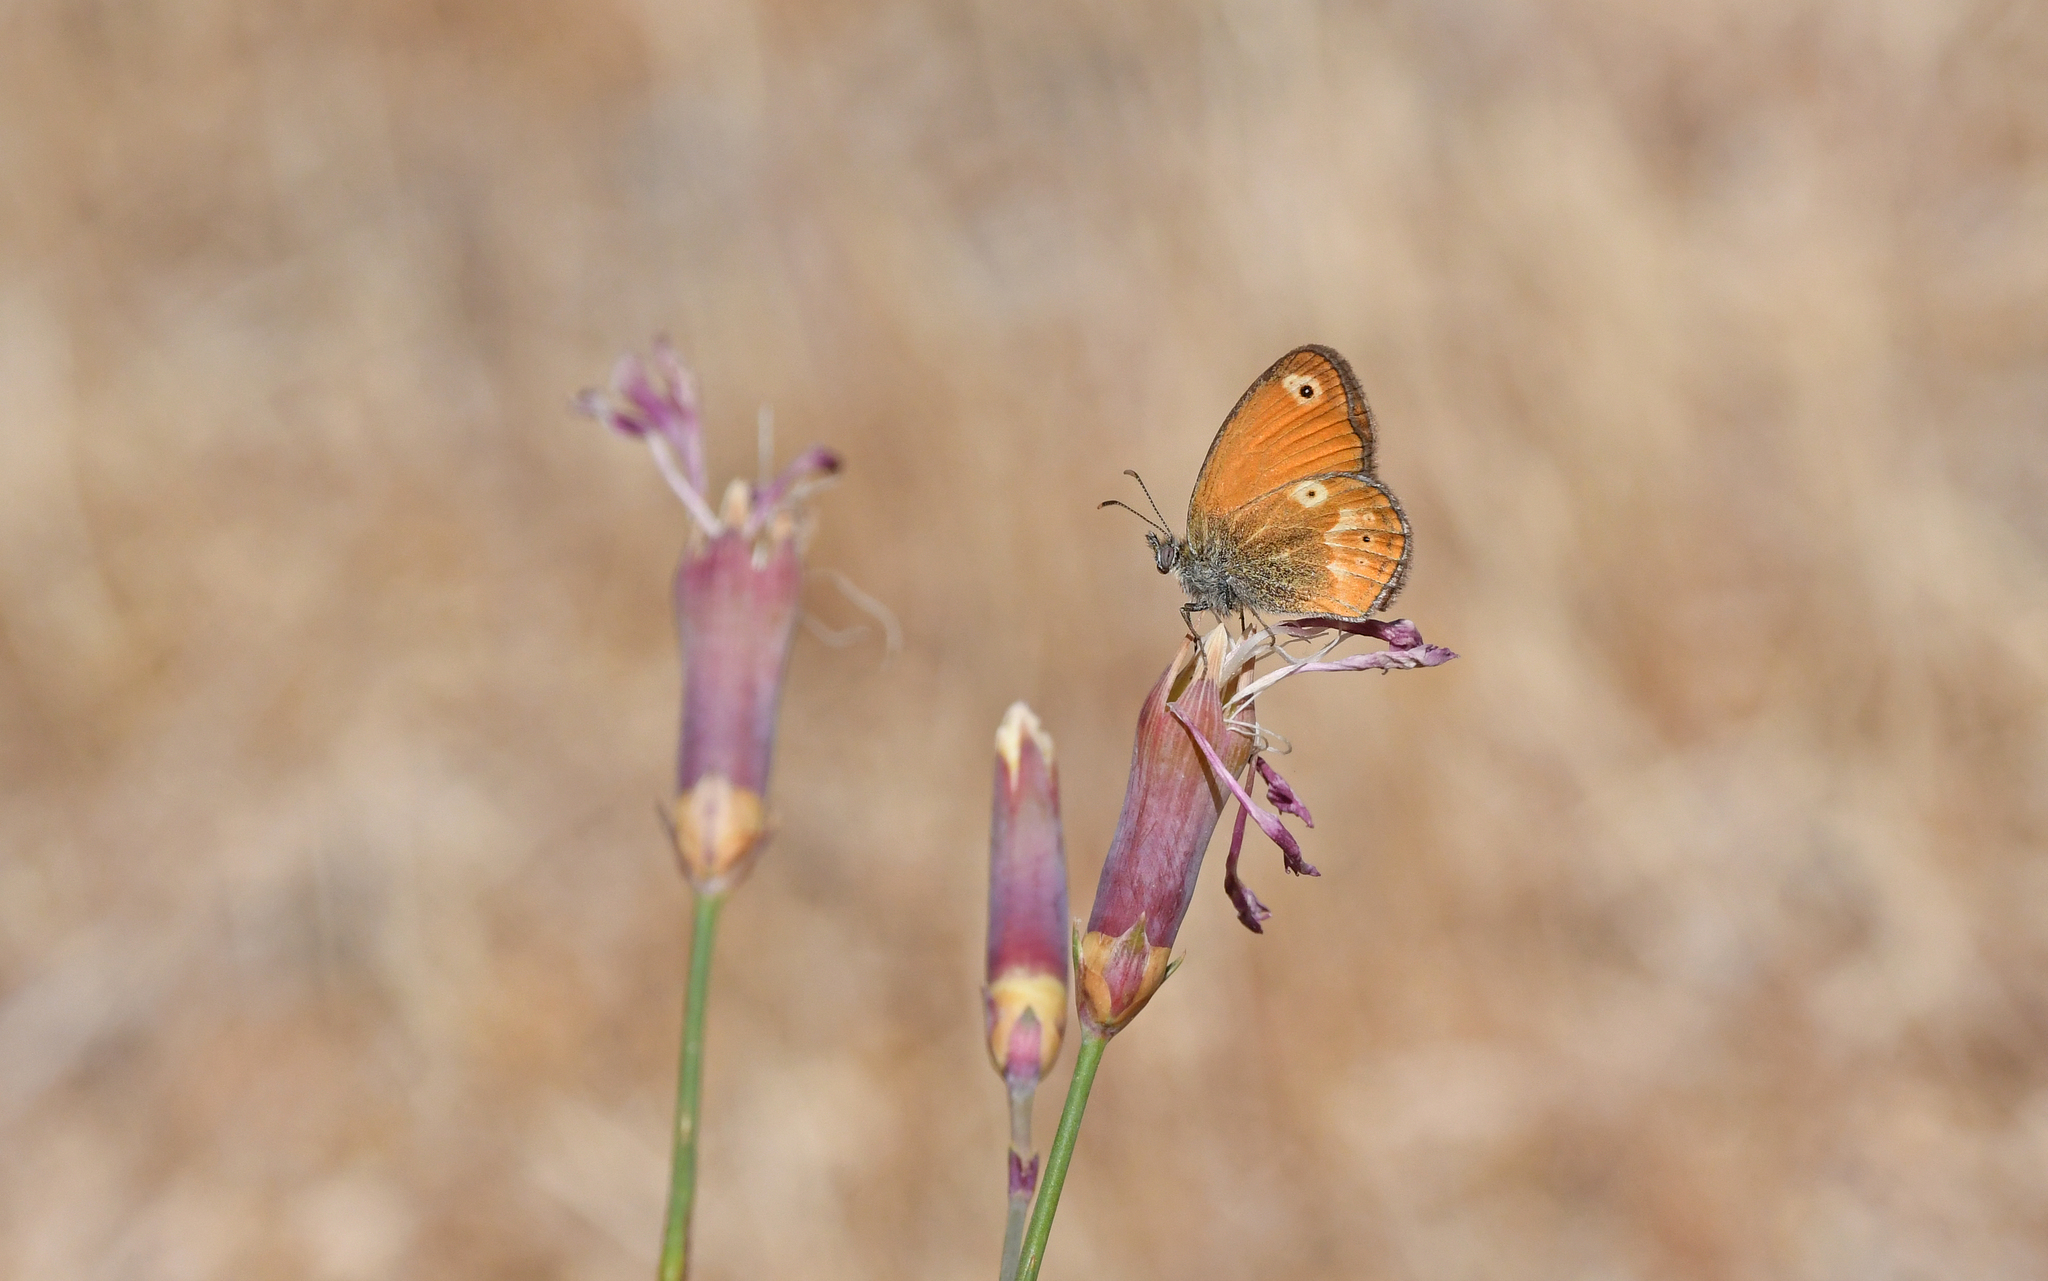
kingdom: Animalia
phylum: Arthropoda
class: Insecta
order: Lepidoptera
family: Nymphalidae
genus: Coenonympha
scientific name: Coenonympha corinna
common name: Corsican heath
